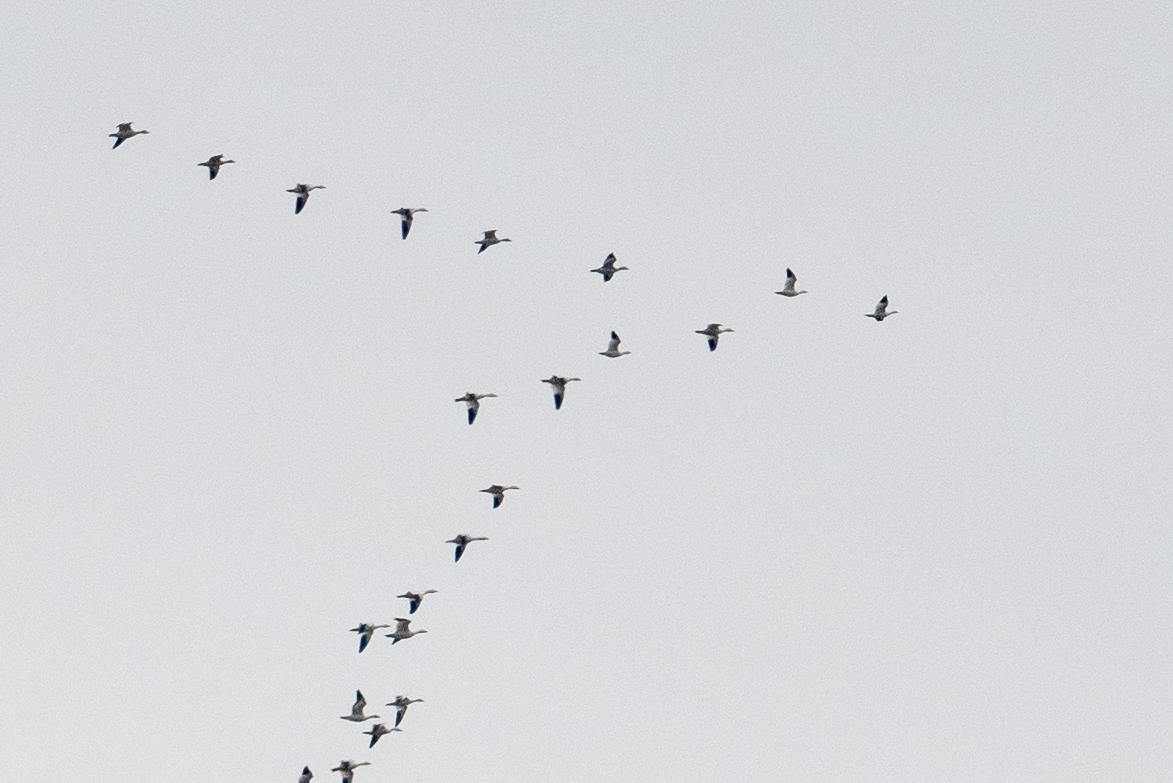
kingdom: Animalia
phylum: Chordata
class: Aves
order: Anseriformes
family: Anatidae
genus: Anser
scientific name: Anser caerulescens
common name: Snow goose
